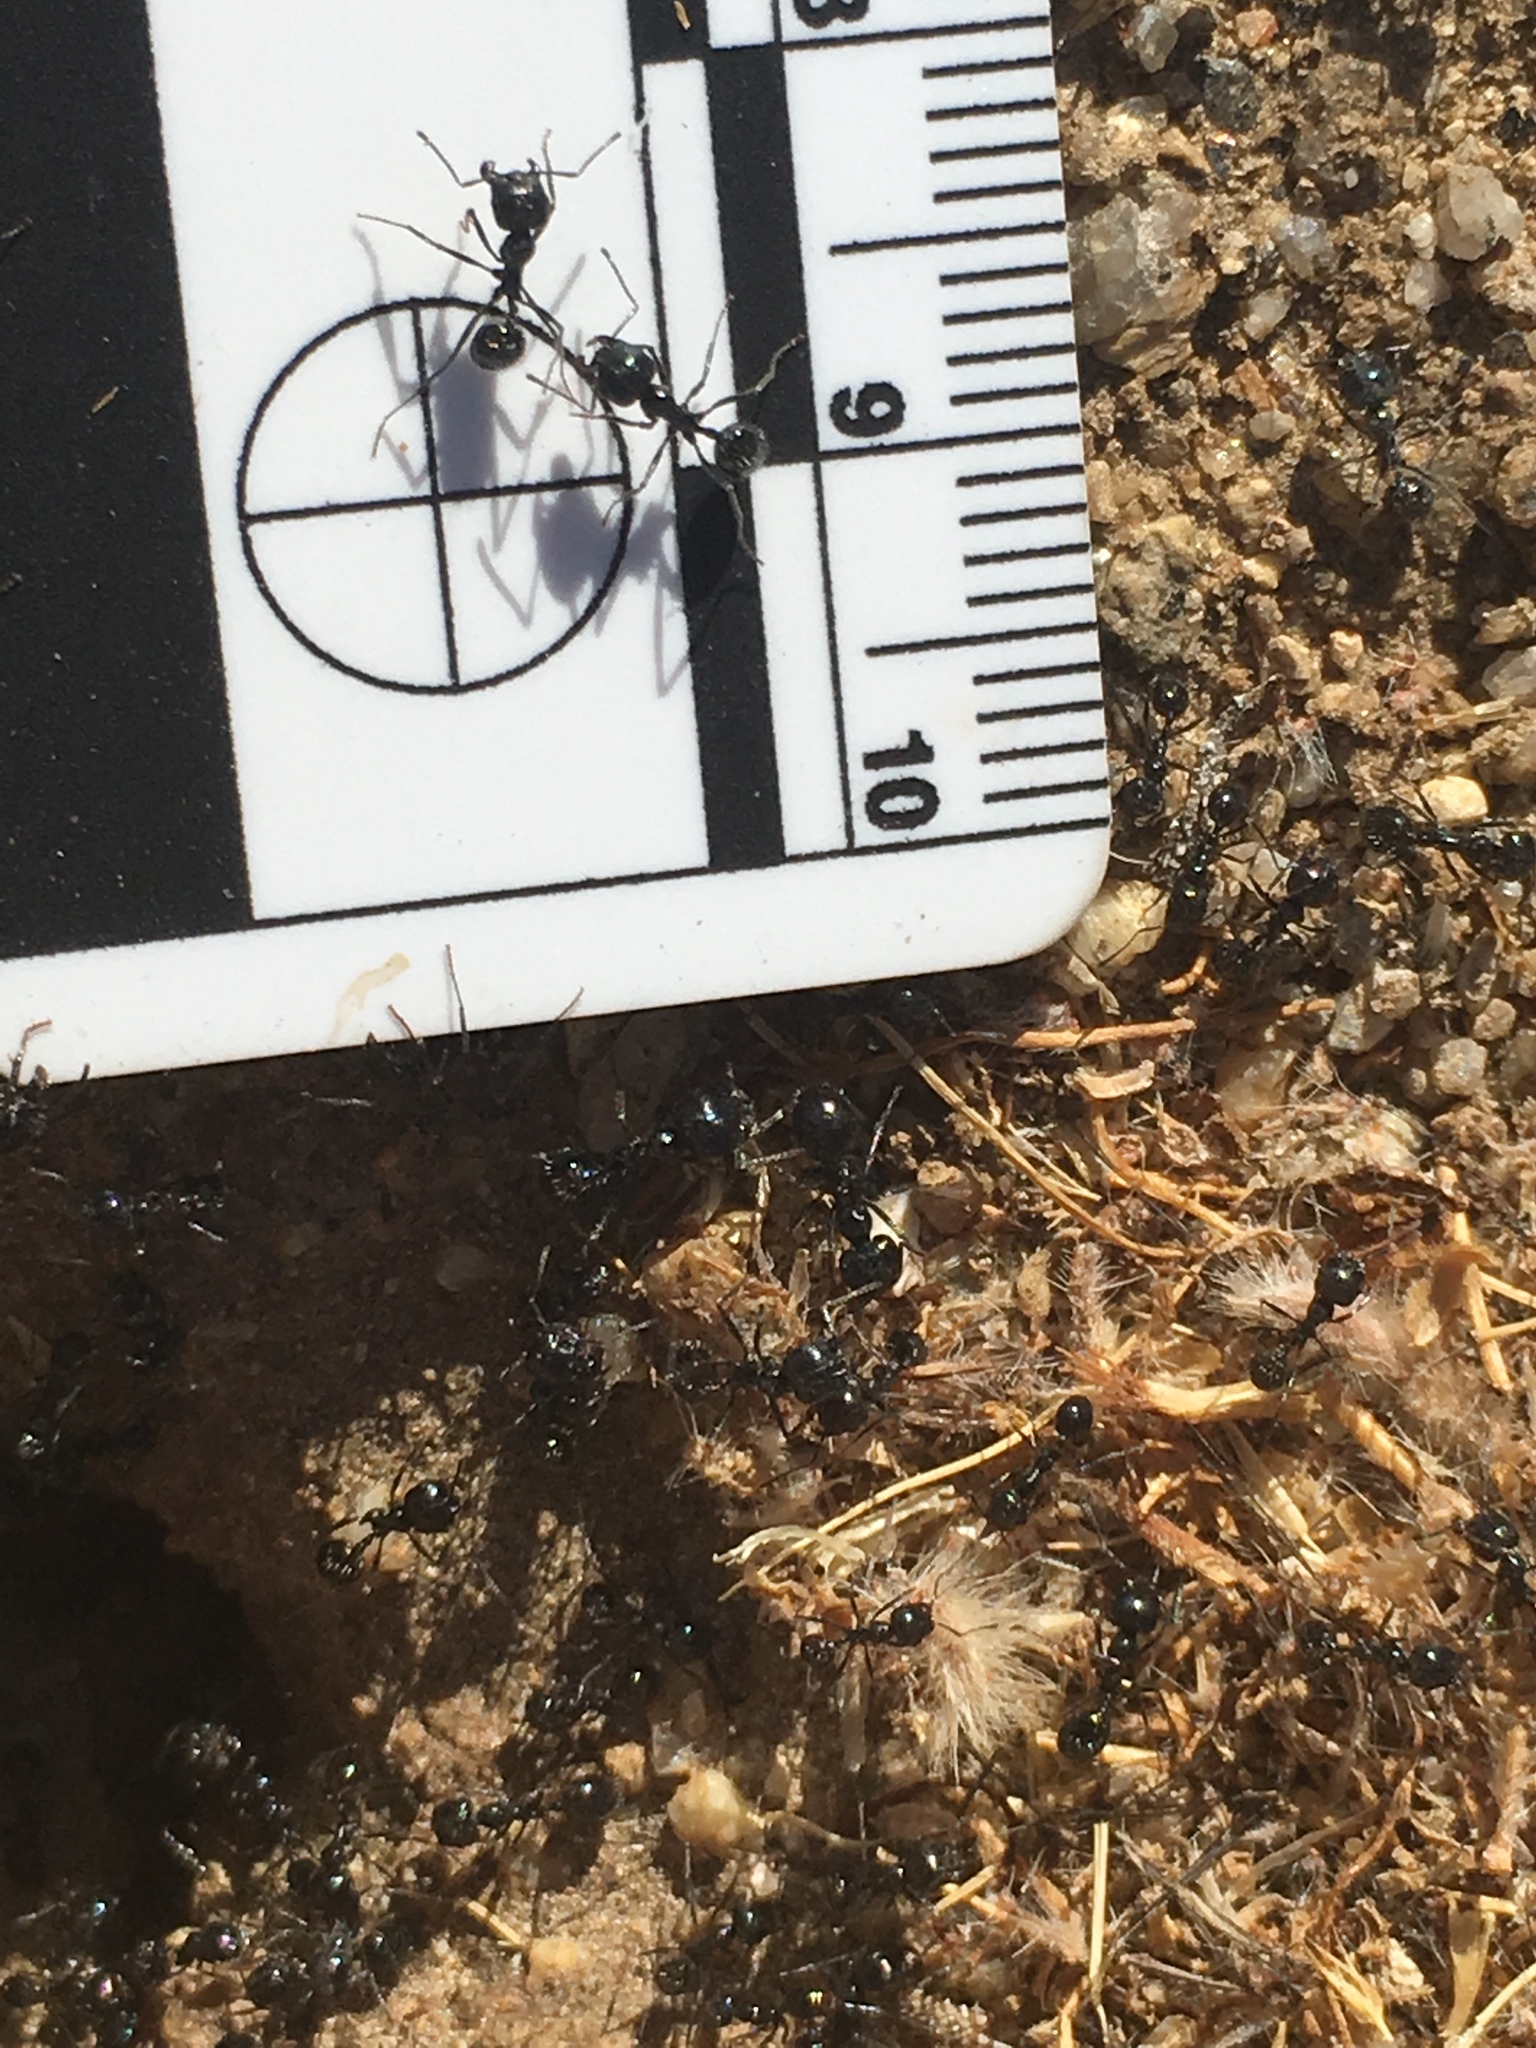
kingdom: Animalia
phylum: Arthropoda
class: Insecta
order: Hymenoptera
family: Formicidae
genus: Messor
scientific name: Messor pergandei
